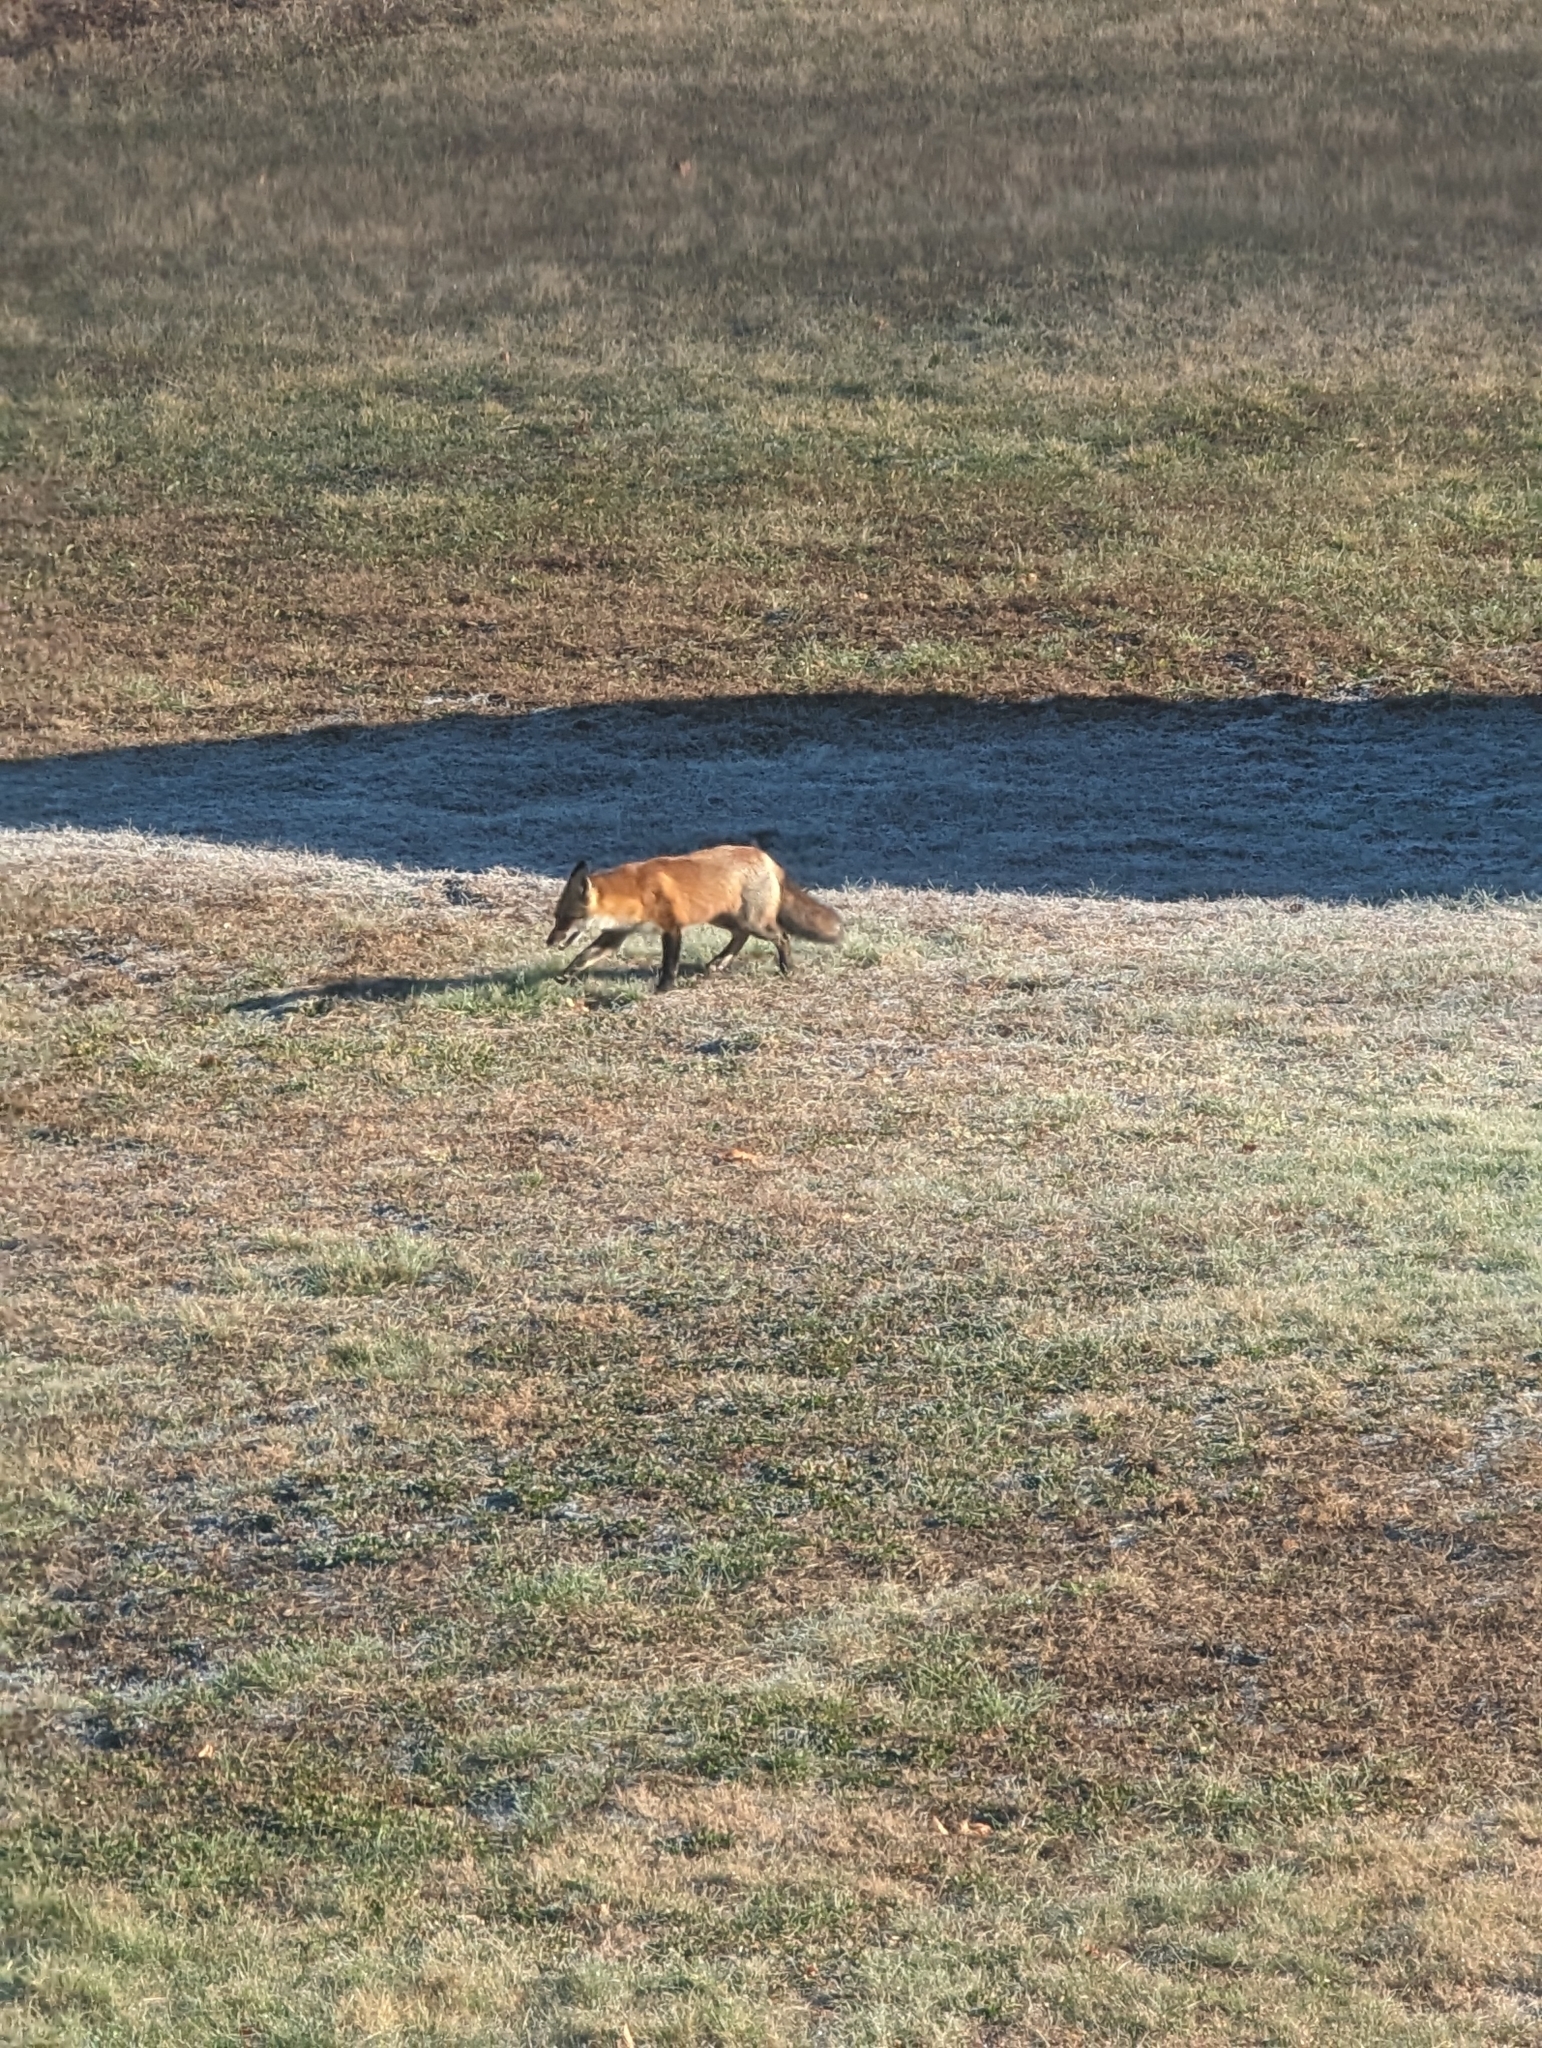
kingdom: Animalia
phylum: Chordata
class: Mammalia
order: Carnivora
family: Canidae
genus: Vulpes
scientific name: Vulpes vulpes
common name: Red fox
